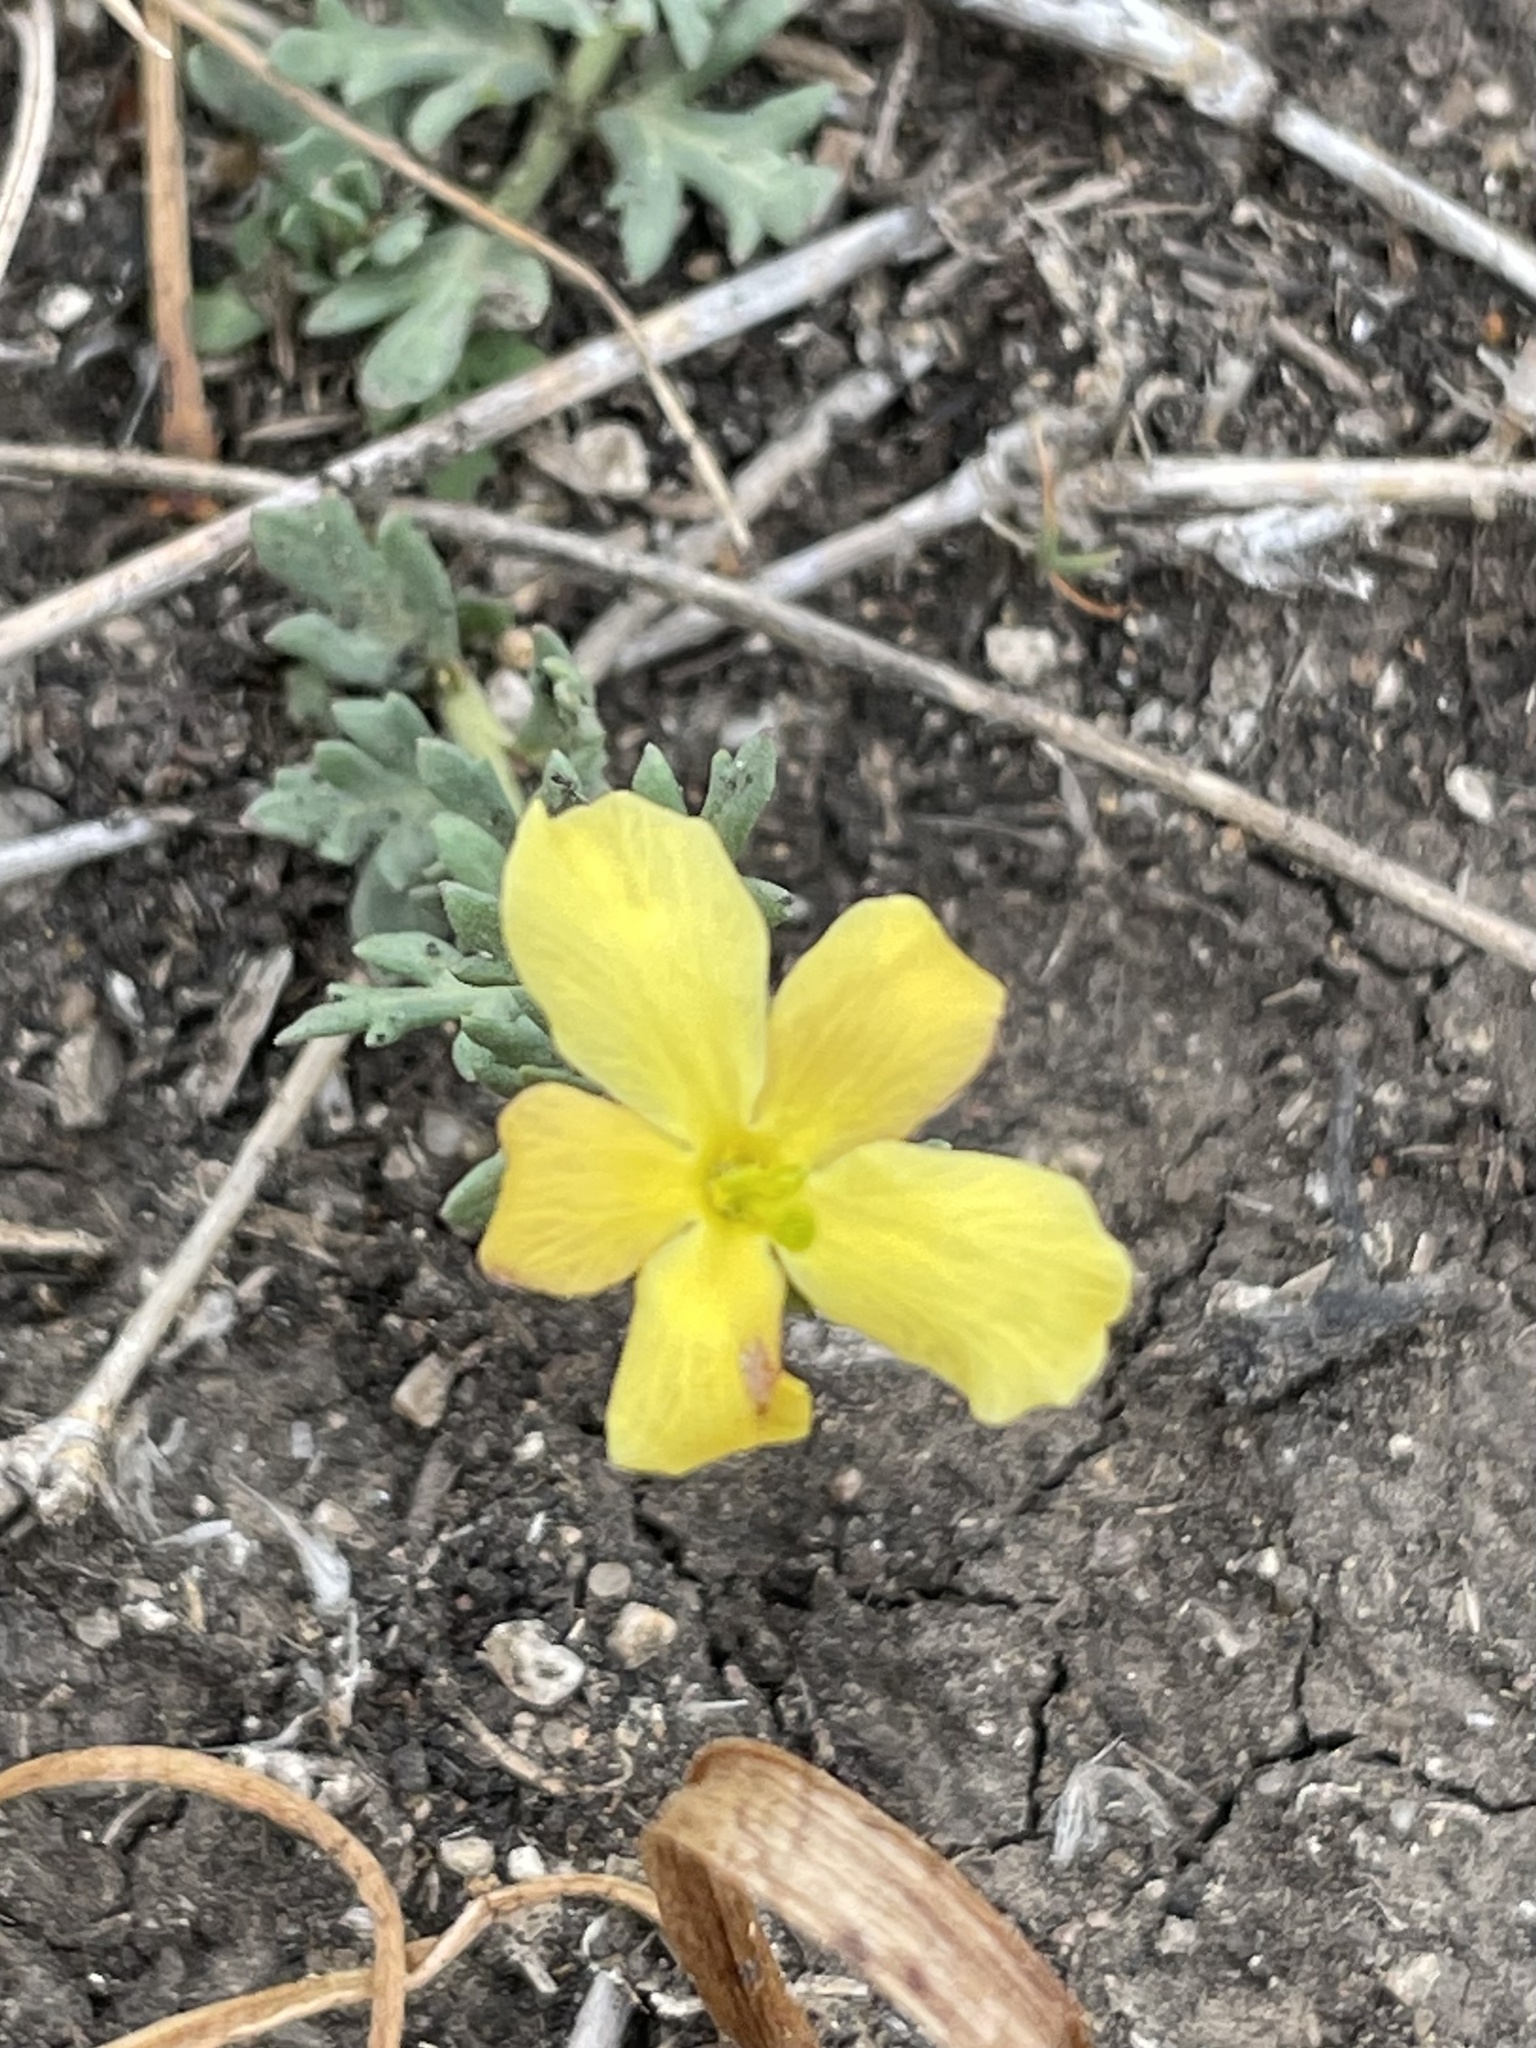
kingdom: Plantae
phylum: Tracheophyta
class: Magnoliopsida
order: Lamiales
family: Oleaceae
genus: Menodora
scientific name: Menodora heterophylla
